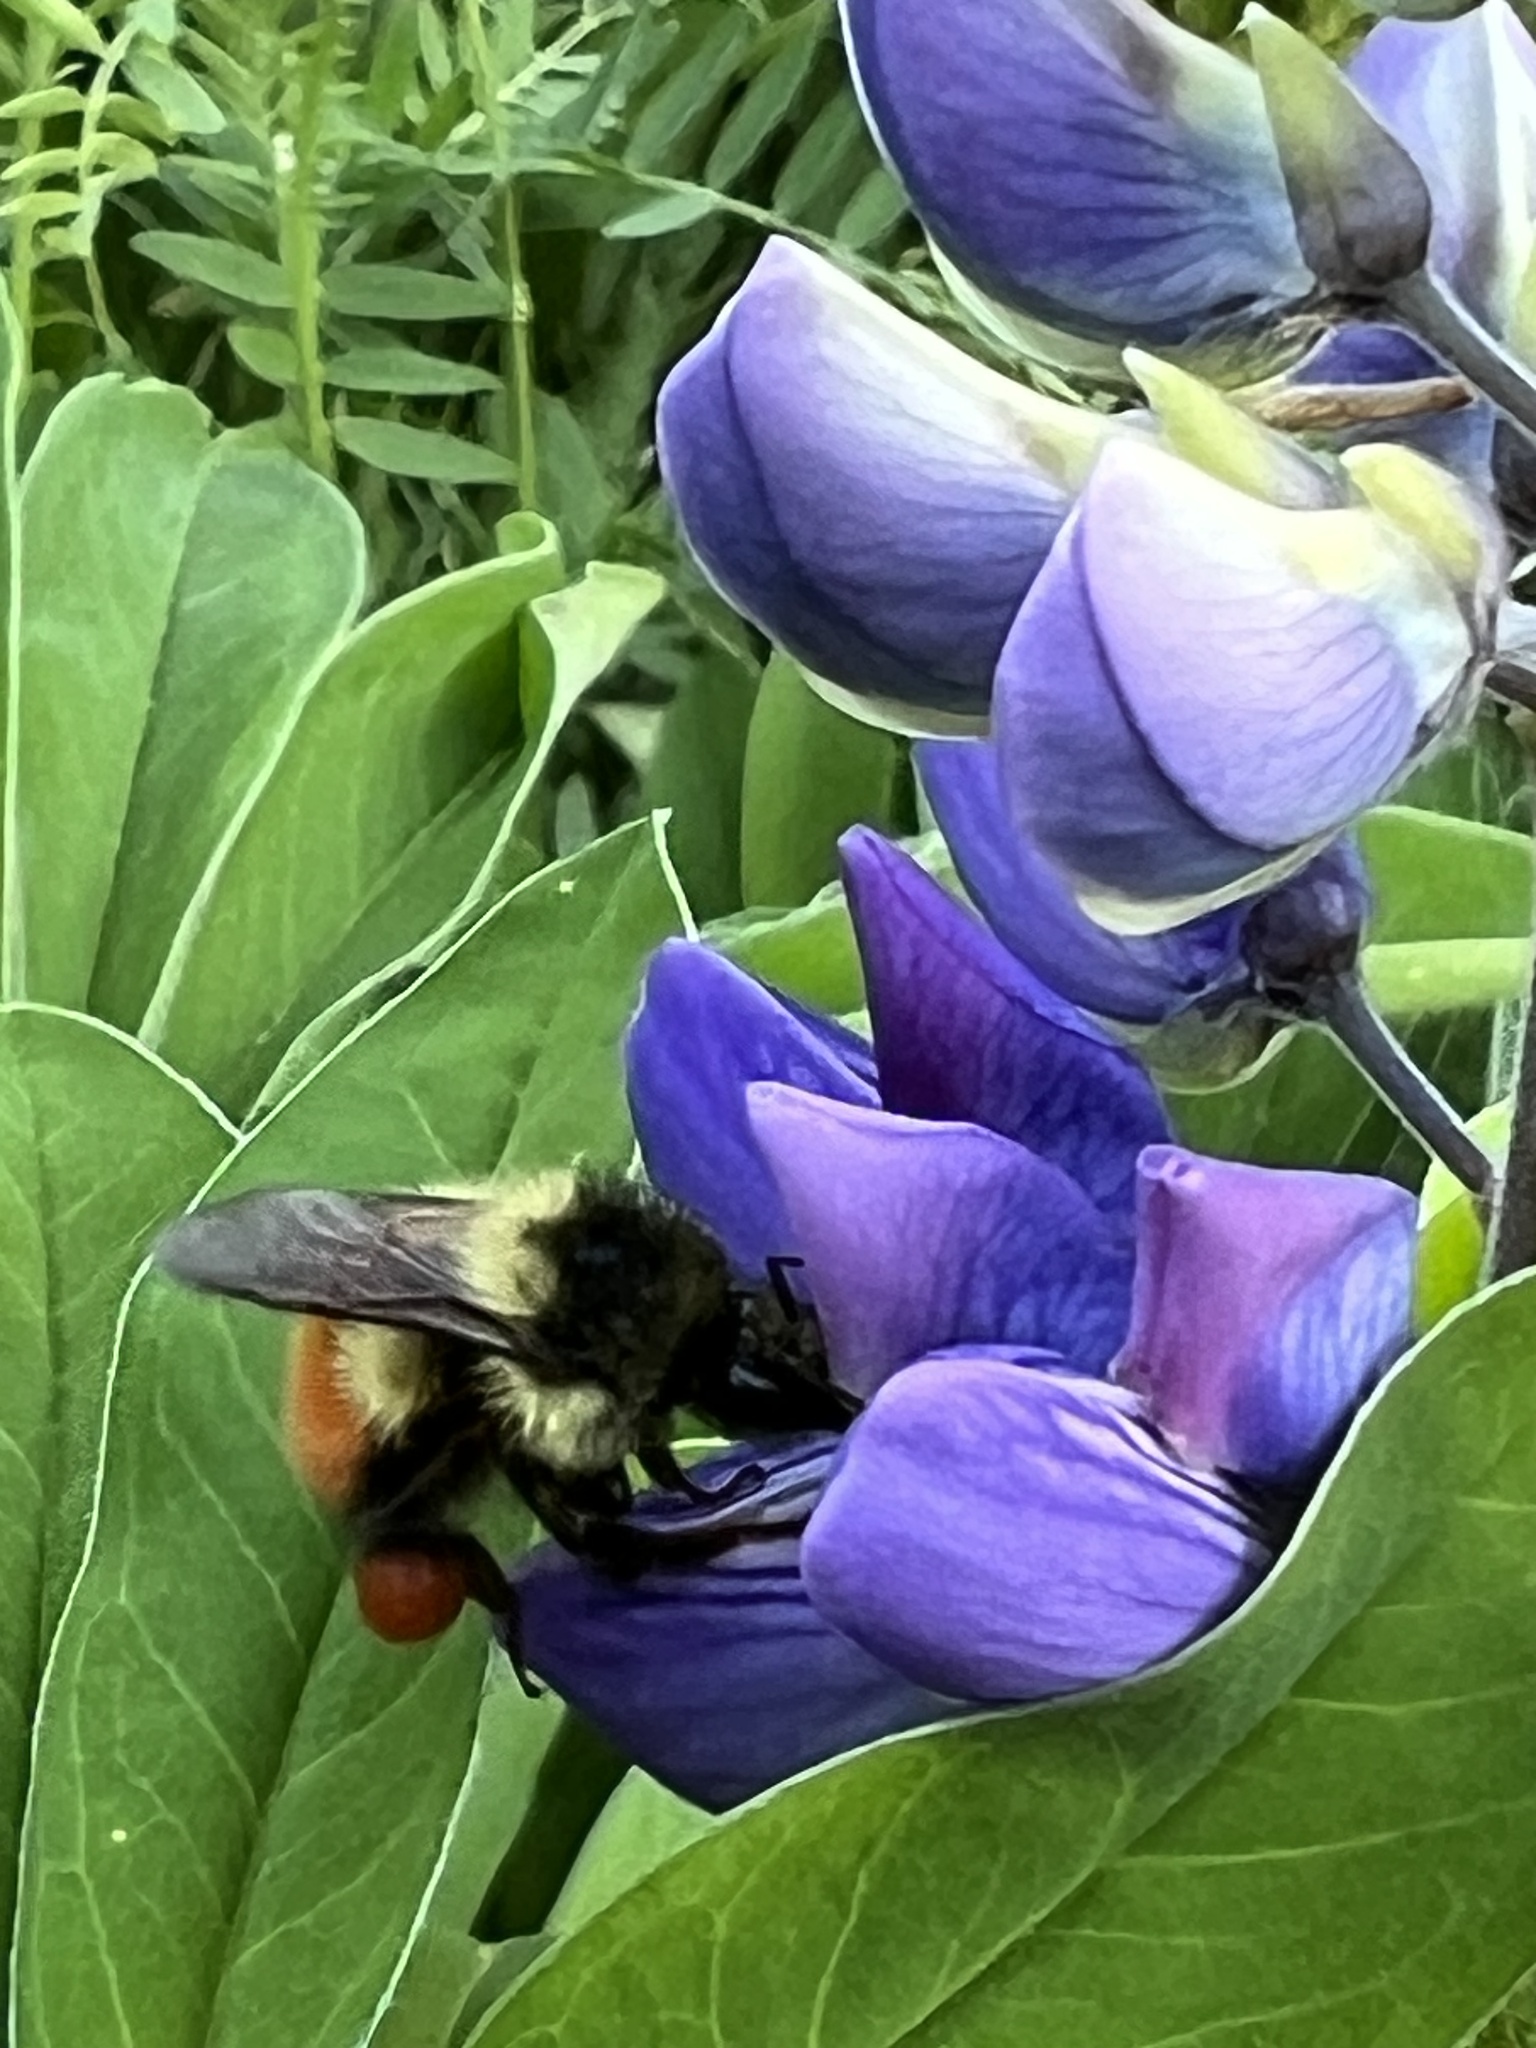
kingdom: Animalia
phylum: Arthropoda
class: Insecta
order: Hymenoptera
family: Apidae
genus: Bombus
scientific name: Bombus melanopygus
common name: Black tail bumble bee
